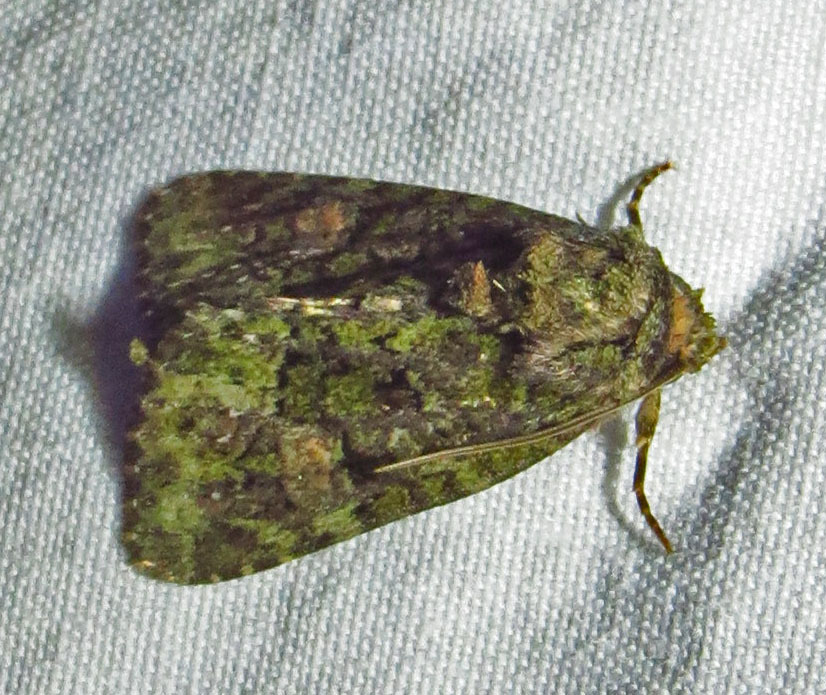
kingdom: Animalia
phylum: Arthropoda
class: Insecta
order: Lepidoptera
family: Noctuidae
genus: Phosphila
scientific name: Phosphila miselioides
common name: Spotted phosphila moth
